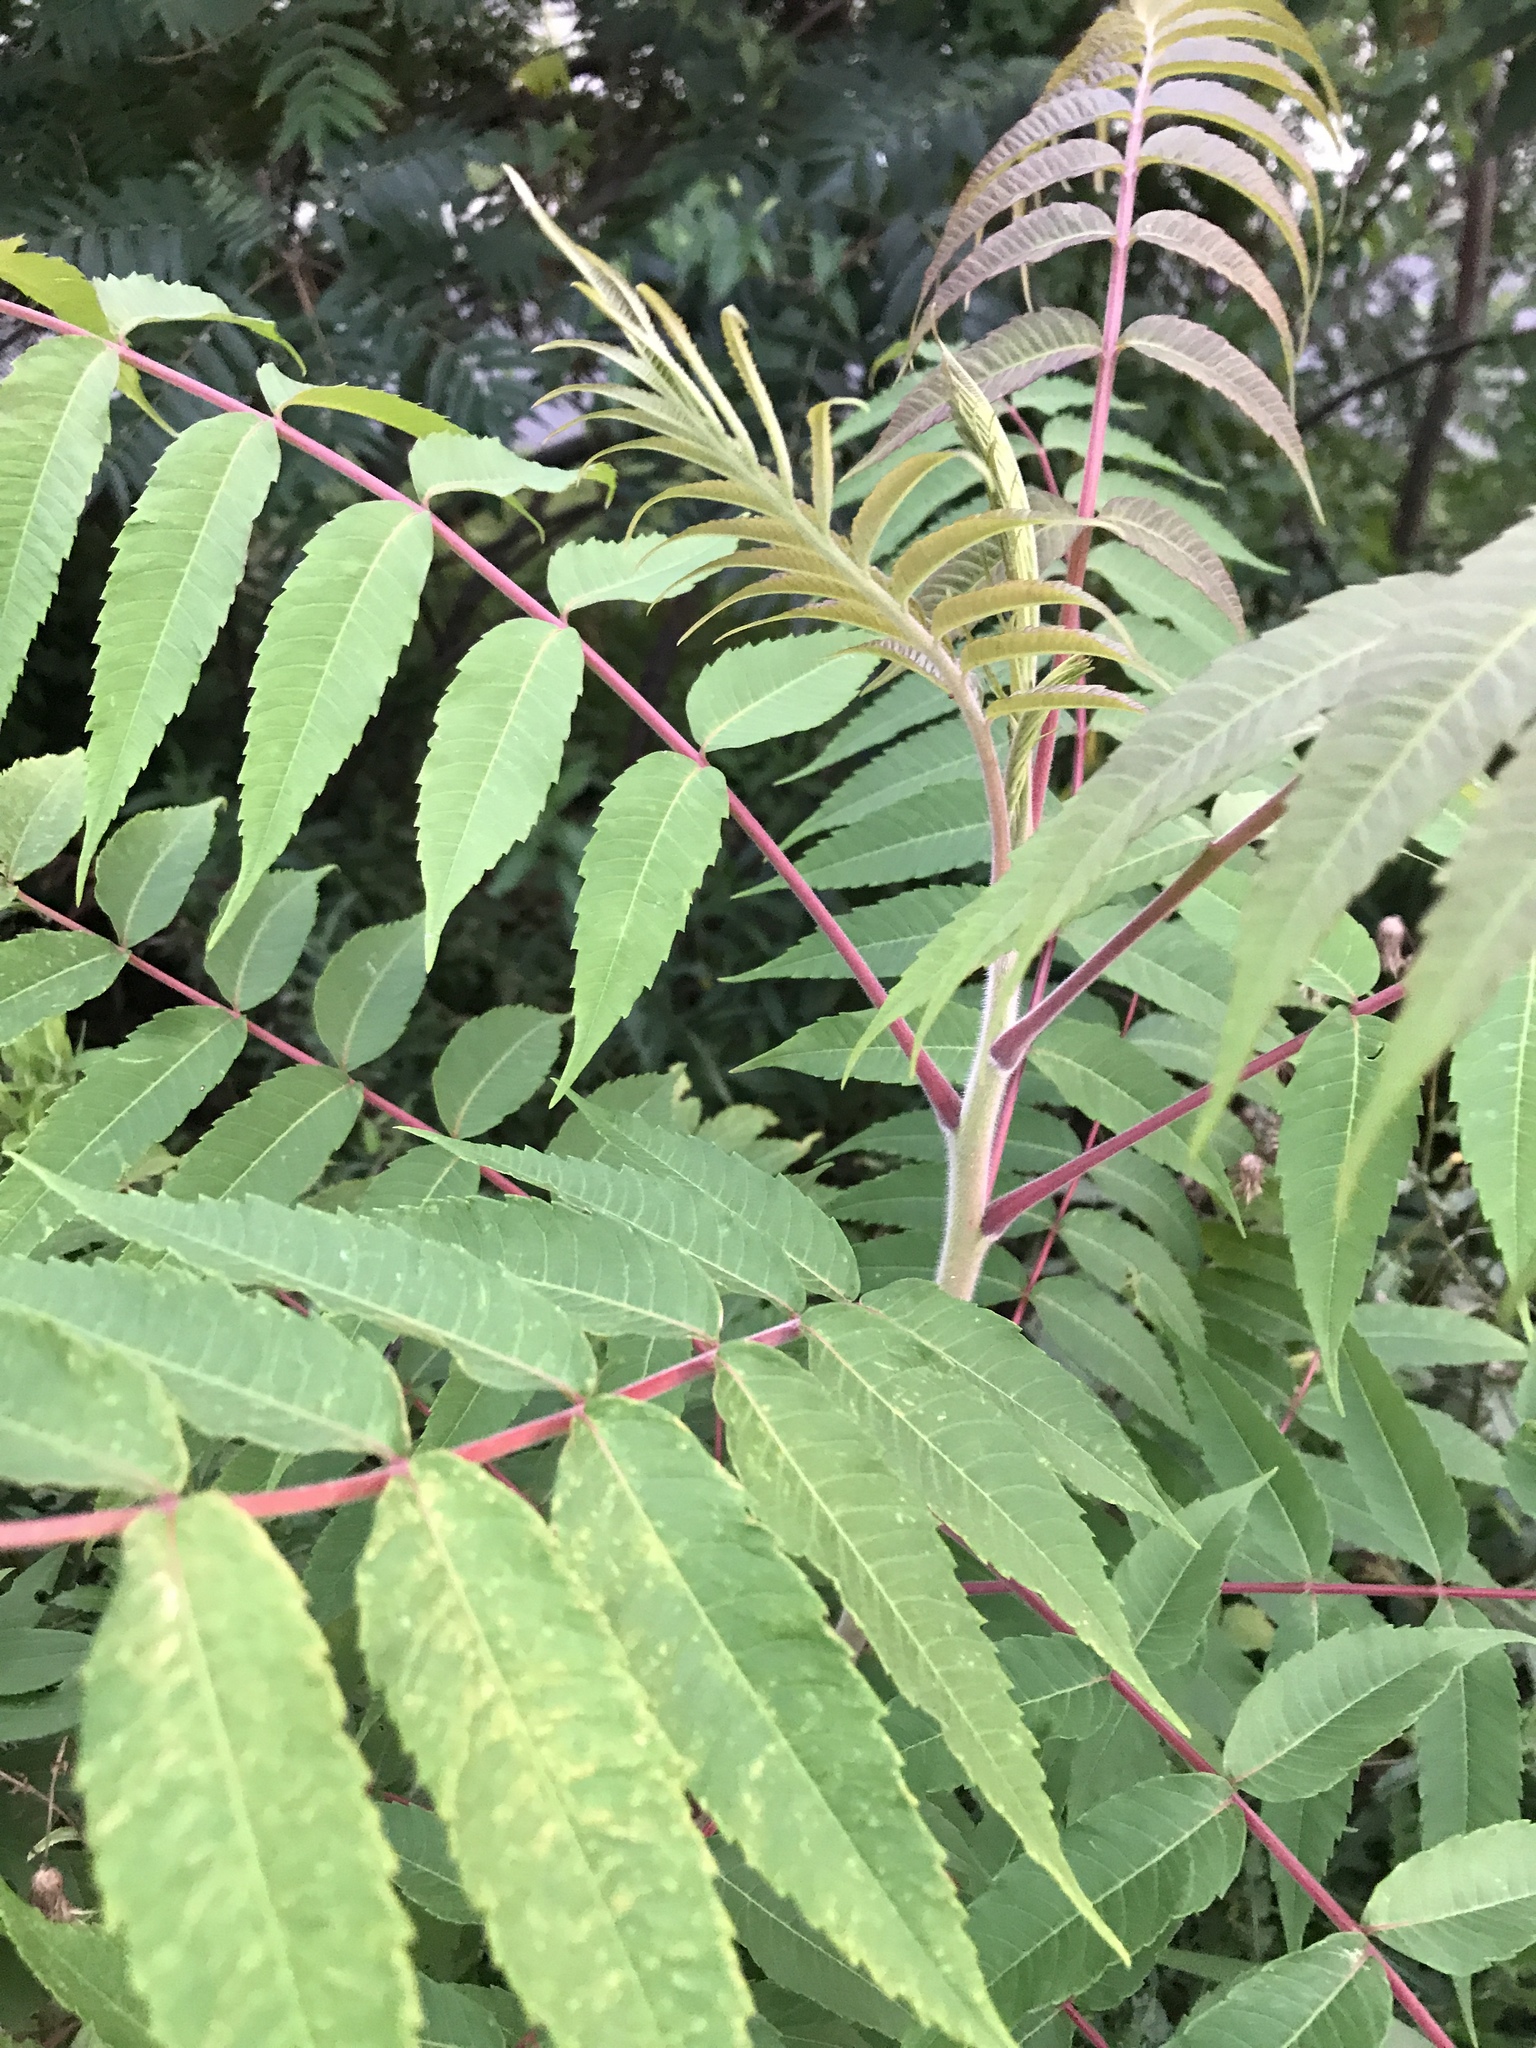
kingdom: Plantae
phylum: Tracheophyta
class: Magnoliopsida
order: Sapindales
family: Anacardiaceae
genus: Rhus
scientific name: Rhus typhina
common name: Staghorn sumac
